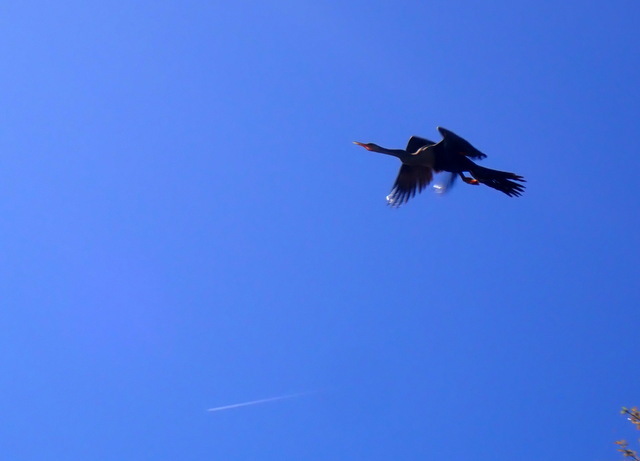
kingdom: Animalia
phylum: Chordata
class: Aves
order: Suliformes
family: Anhingidae
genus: Anhinga
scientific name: Anhinga anhinga
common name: Anhinga
